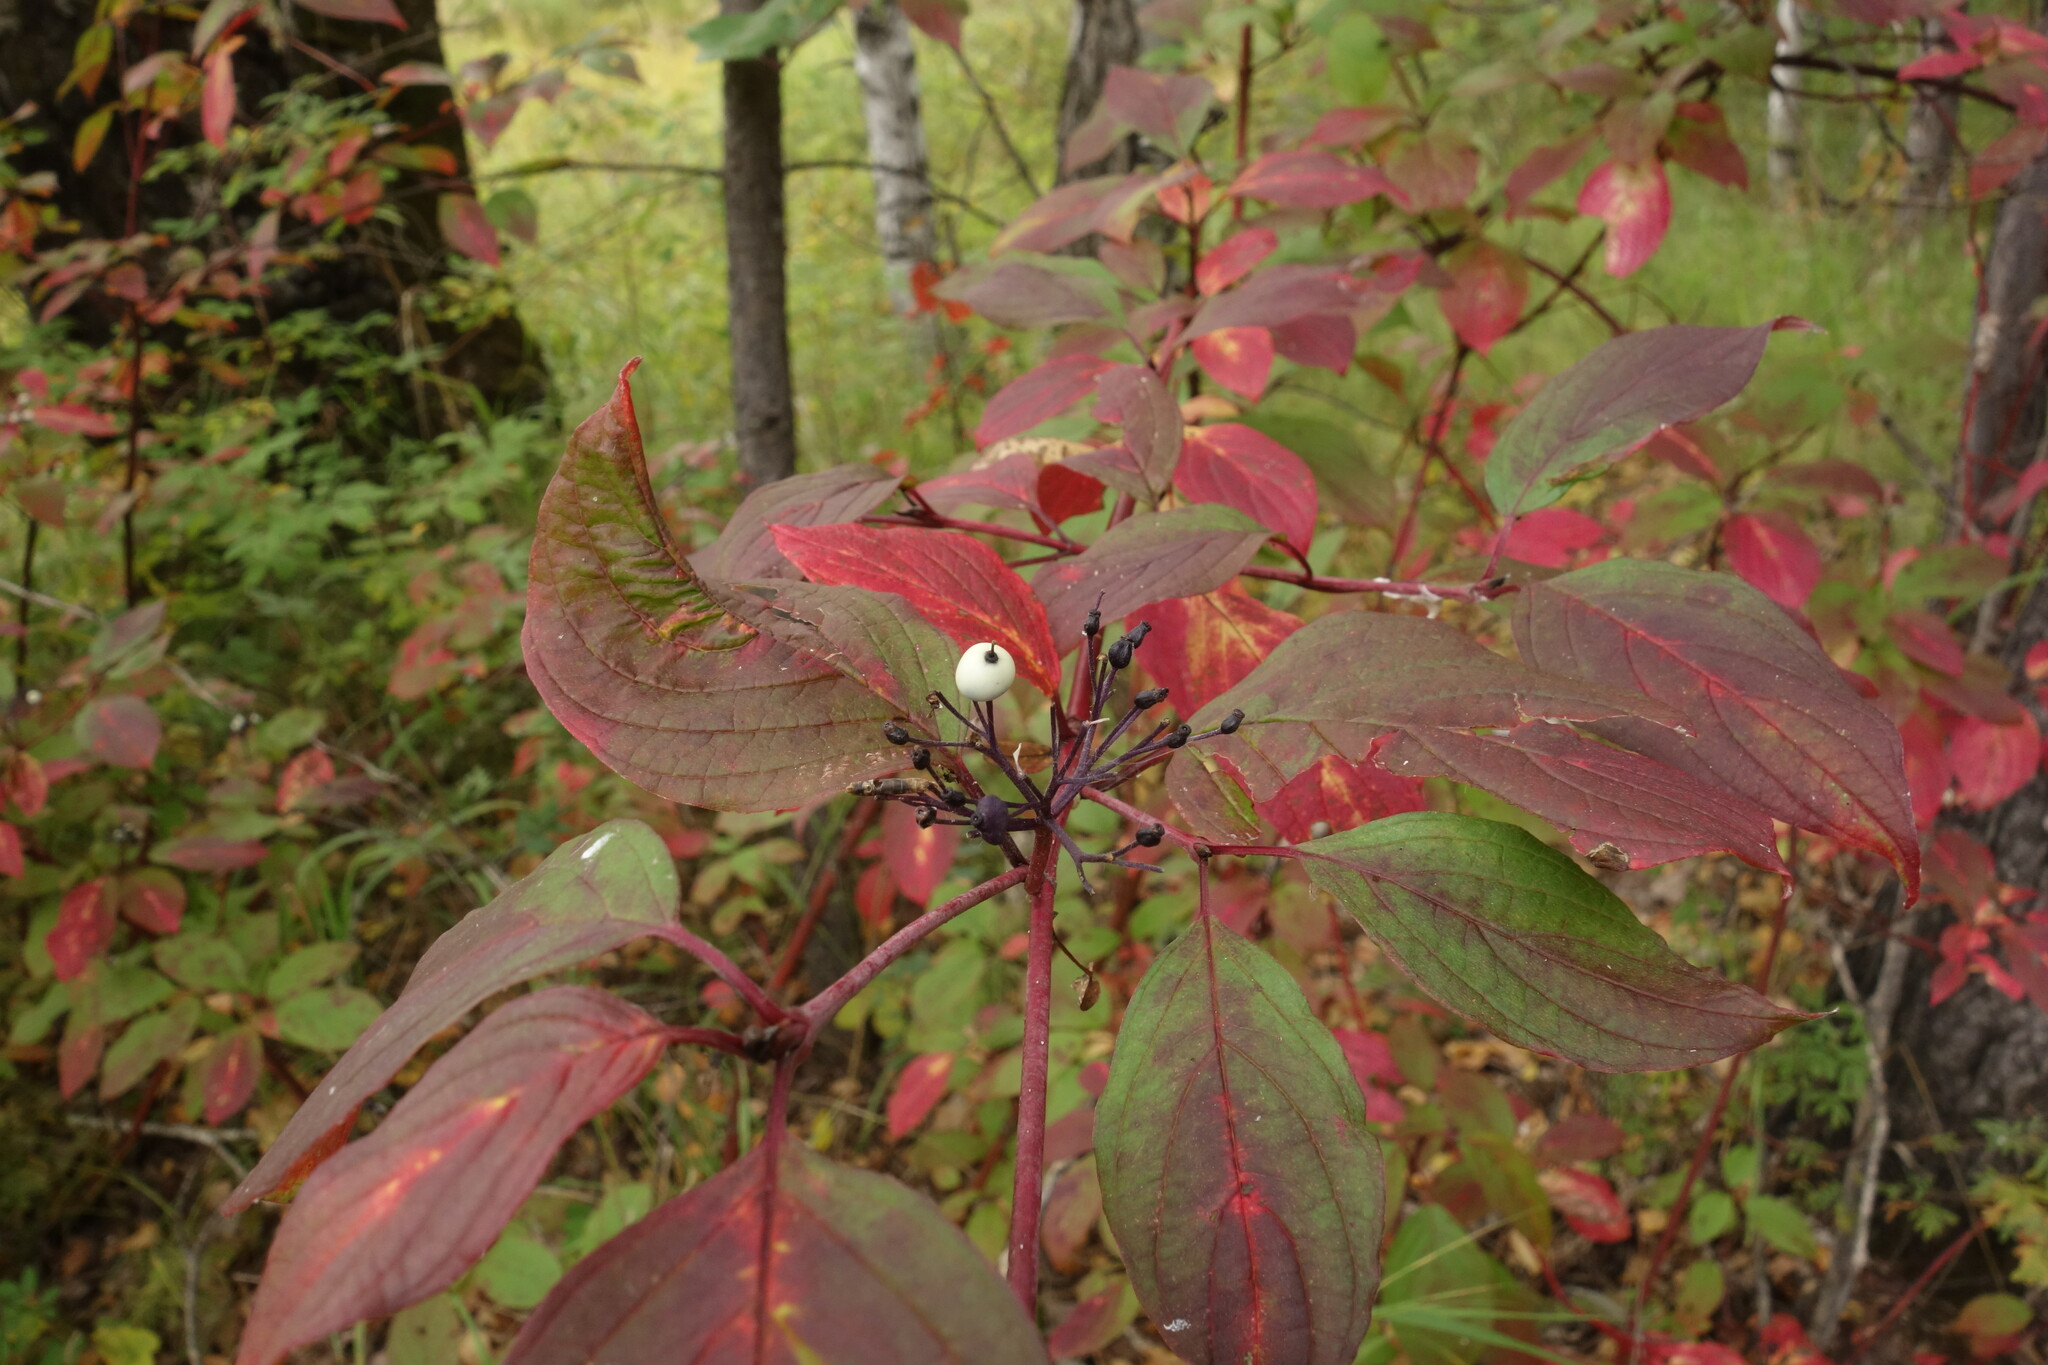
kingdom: Plantae
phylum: Tracheophyta
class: Magnoliopsida
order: Cornales
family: Cornaceae
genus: Cornus
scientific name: Cornus alba
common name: White dogwood
